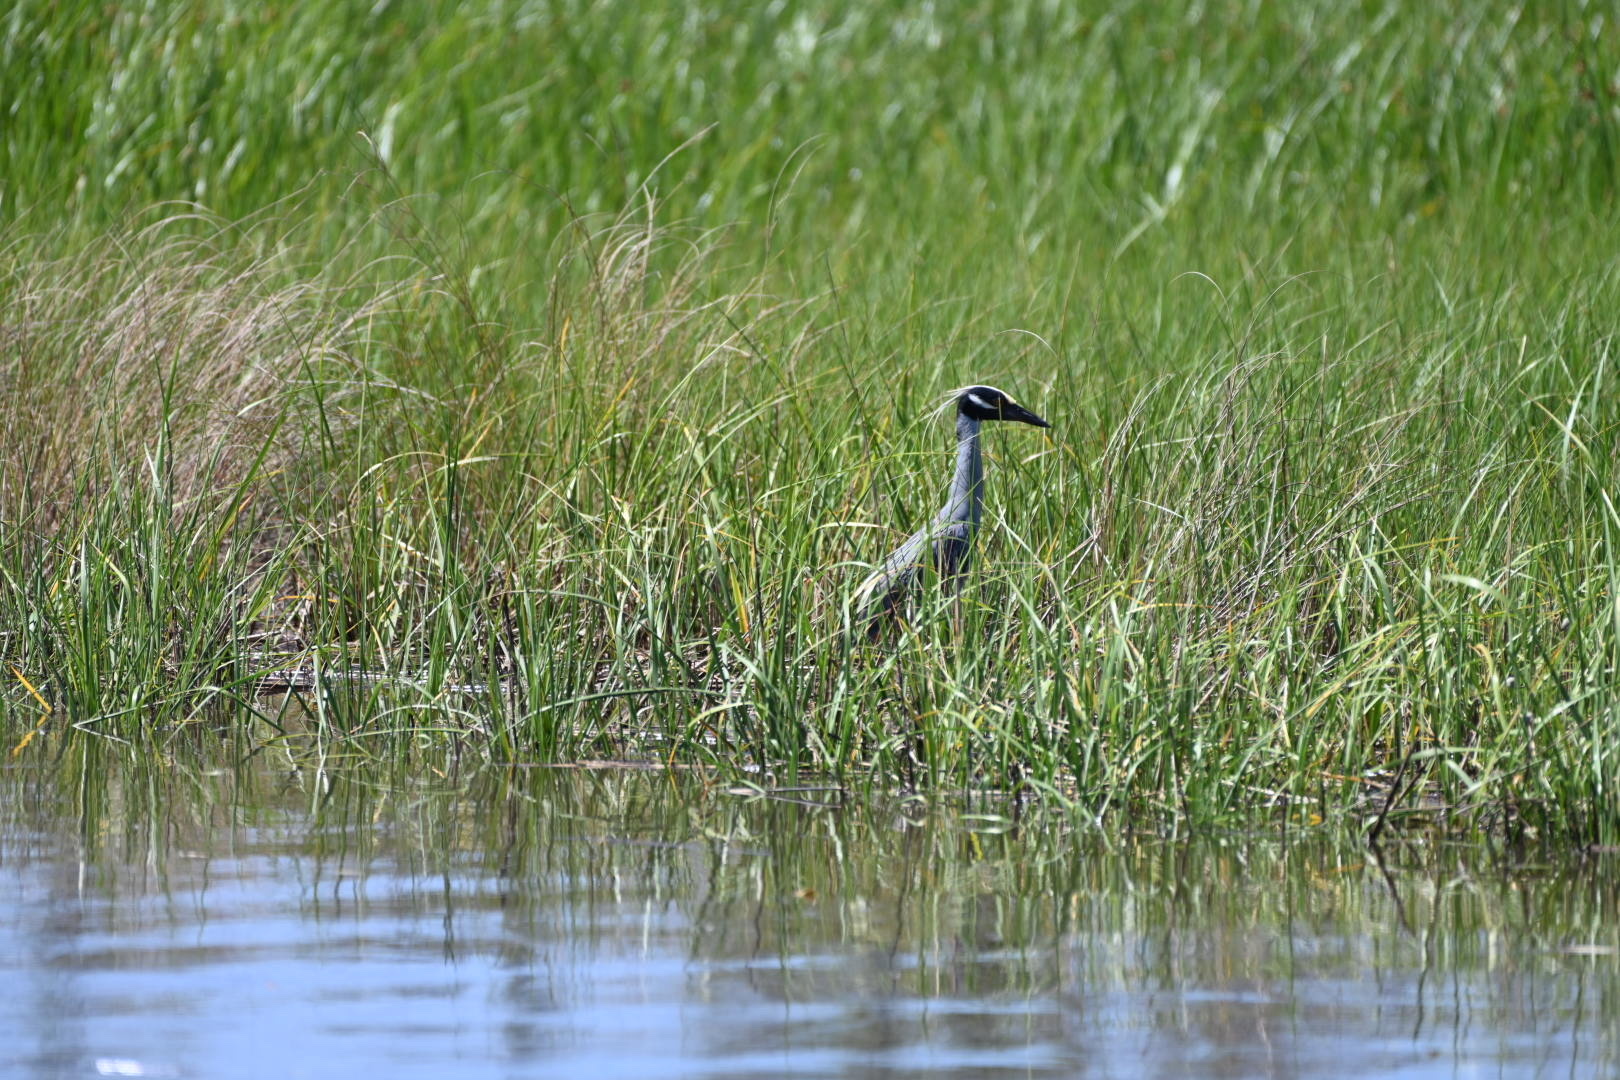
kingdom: Animalia
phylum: Chordata
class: Aves
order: Pelecaniformes
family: Ardeidae
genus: Nyctanassa
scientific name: Nyctanassa violacea
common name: Yellow-crowned night heron
